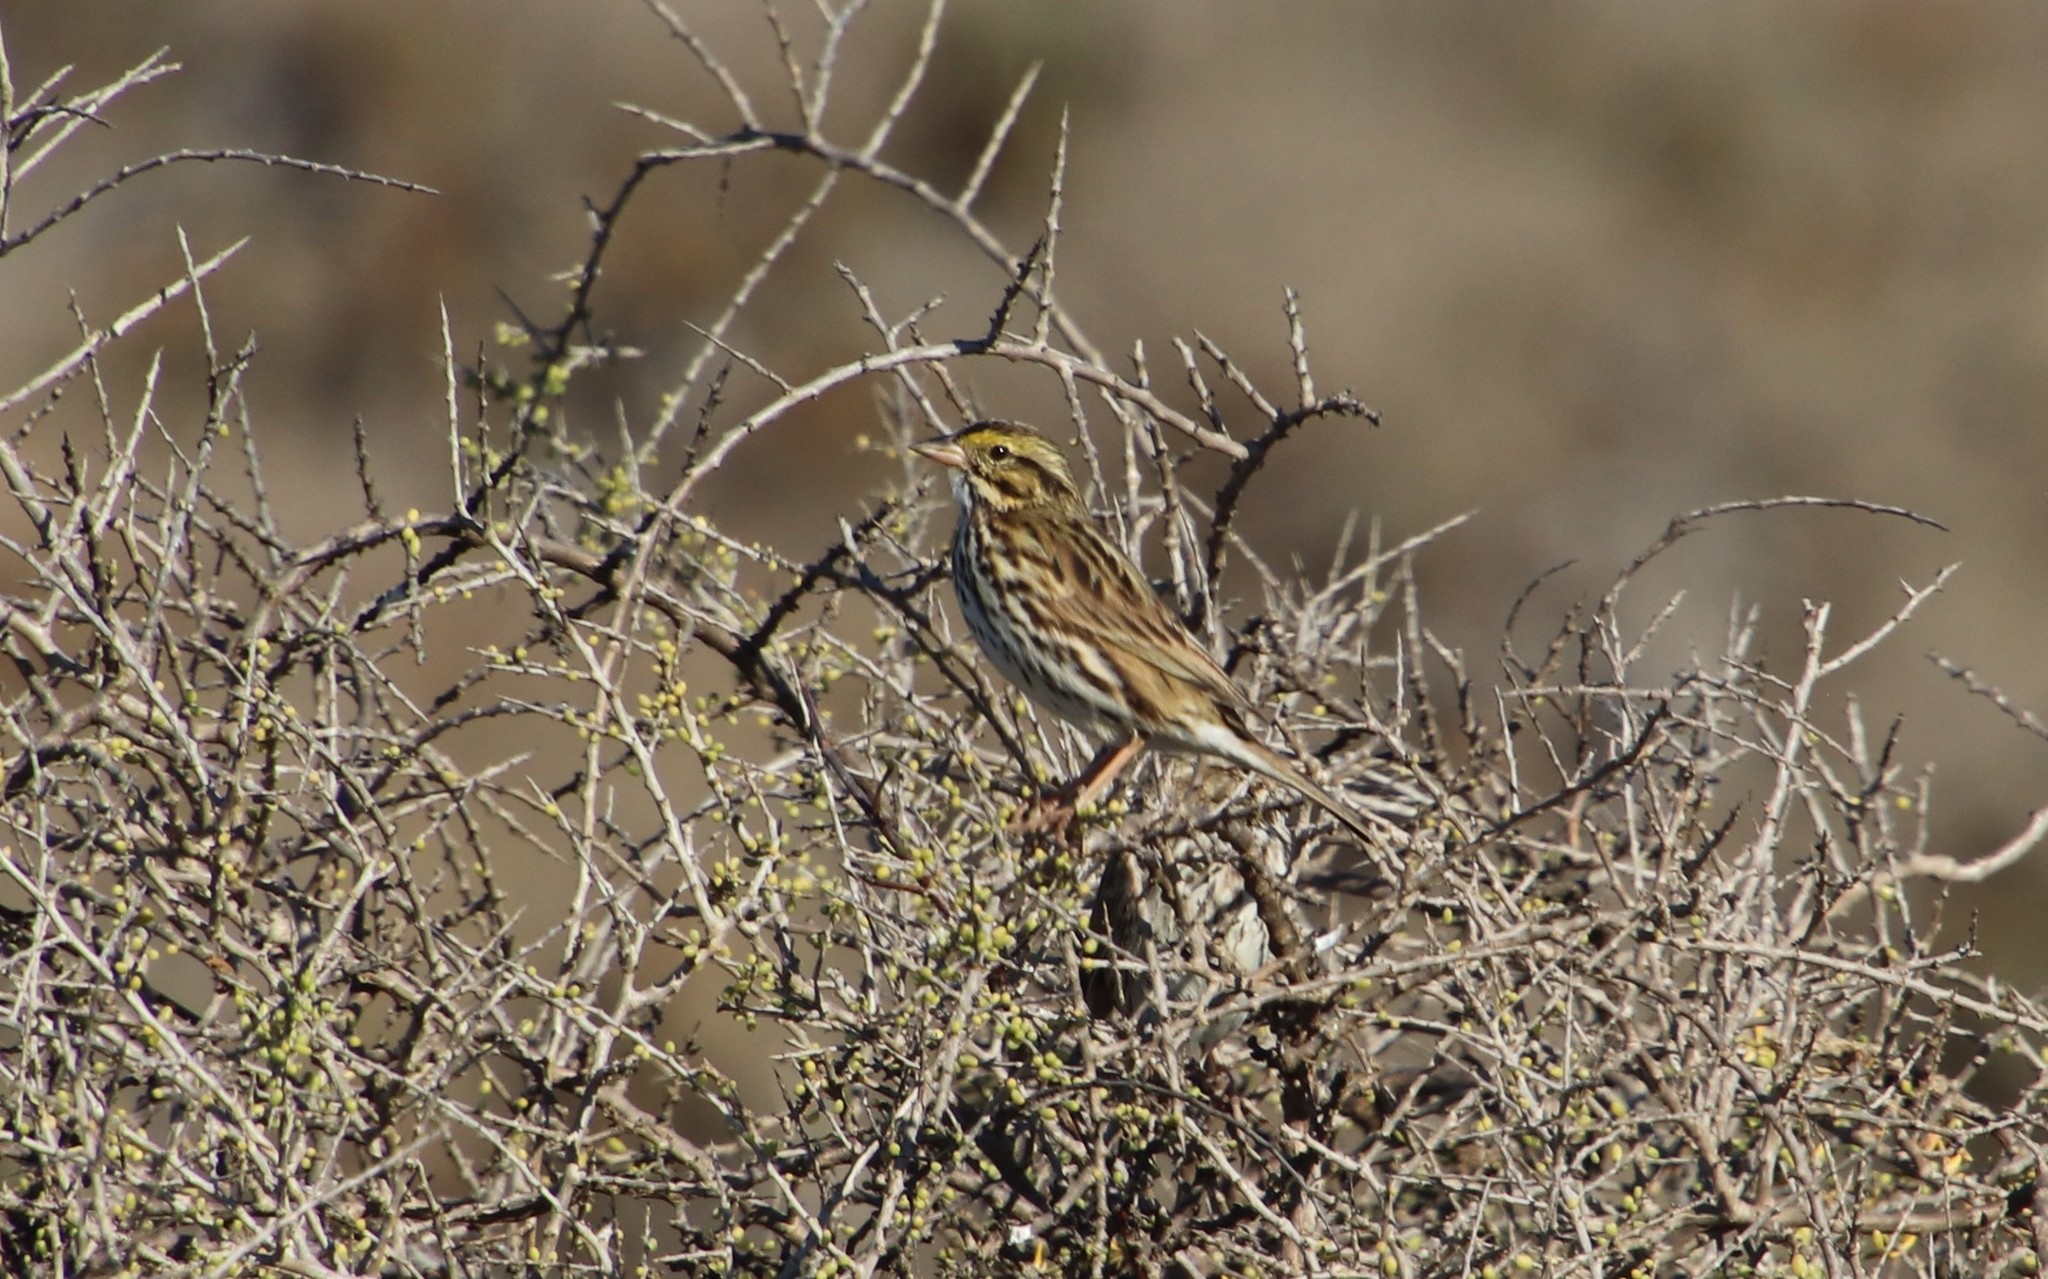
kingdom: Animalia
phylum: Chordata
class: Aves
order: Passeriformes
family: Passerellidae
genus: Passerculus
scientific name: Passerculus sandwichensis
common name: Savannah sparrow
